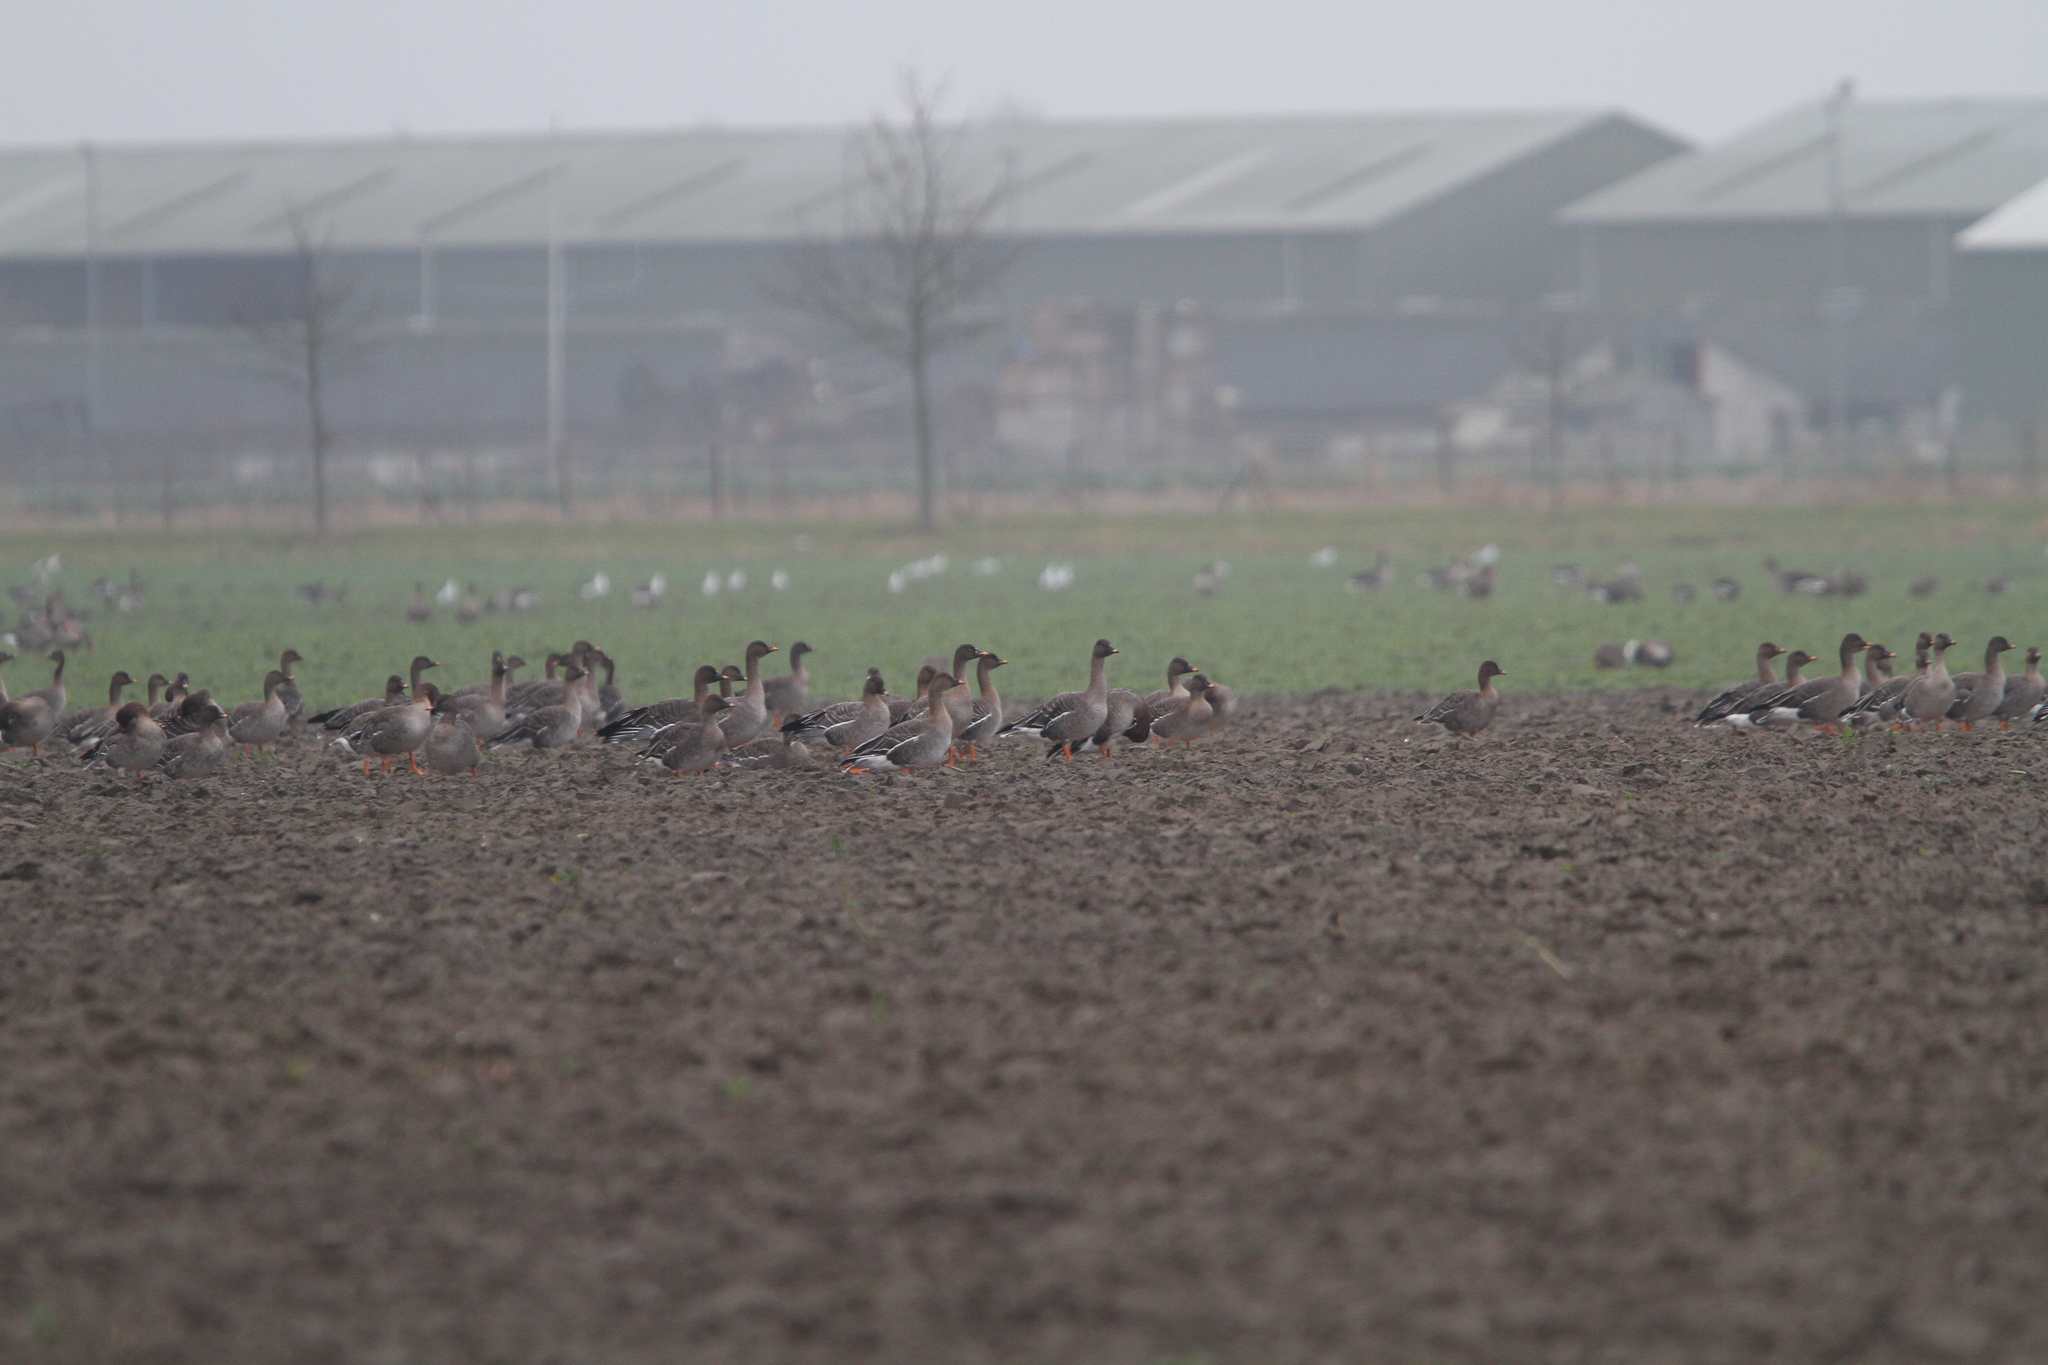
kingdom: Animalia
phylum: Chordata
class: Aves
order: Anseriformes
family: Anatidae
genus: Anser
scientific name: Anser fabalis
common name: Bean goose
